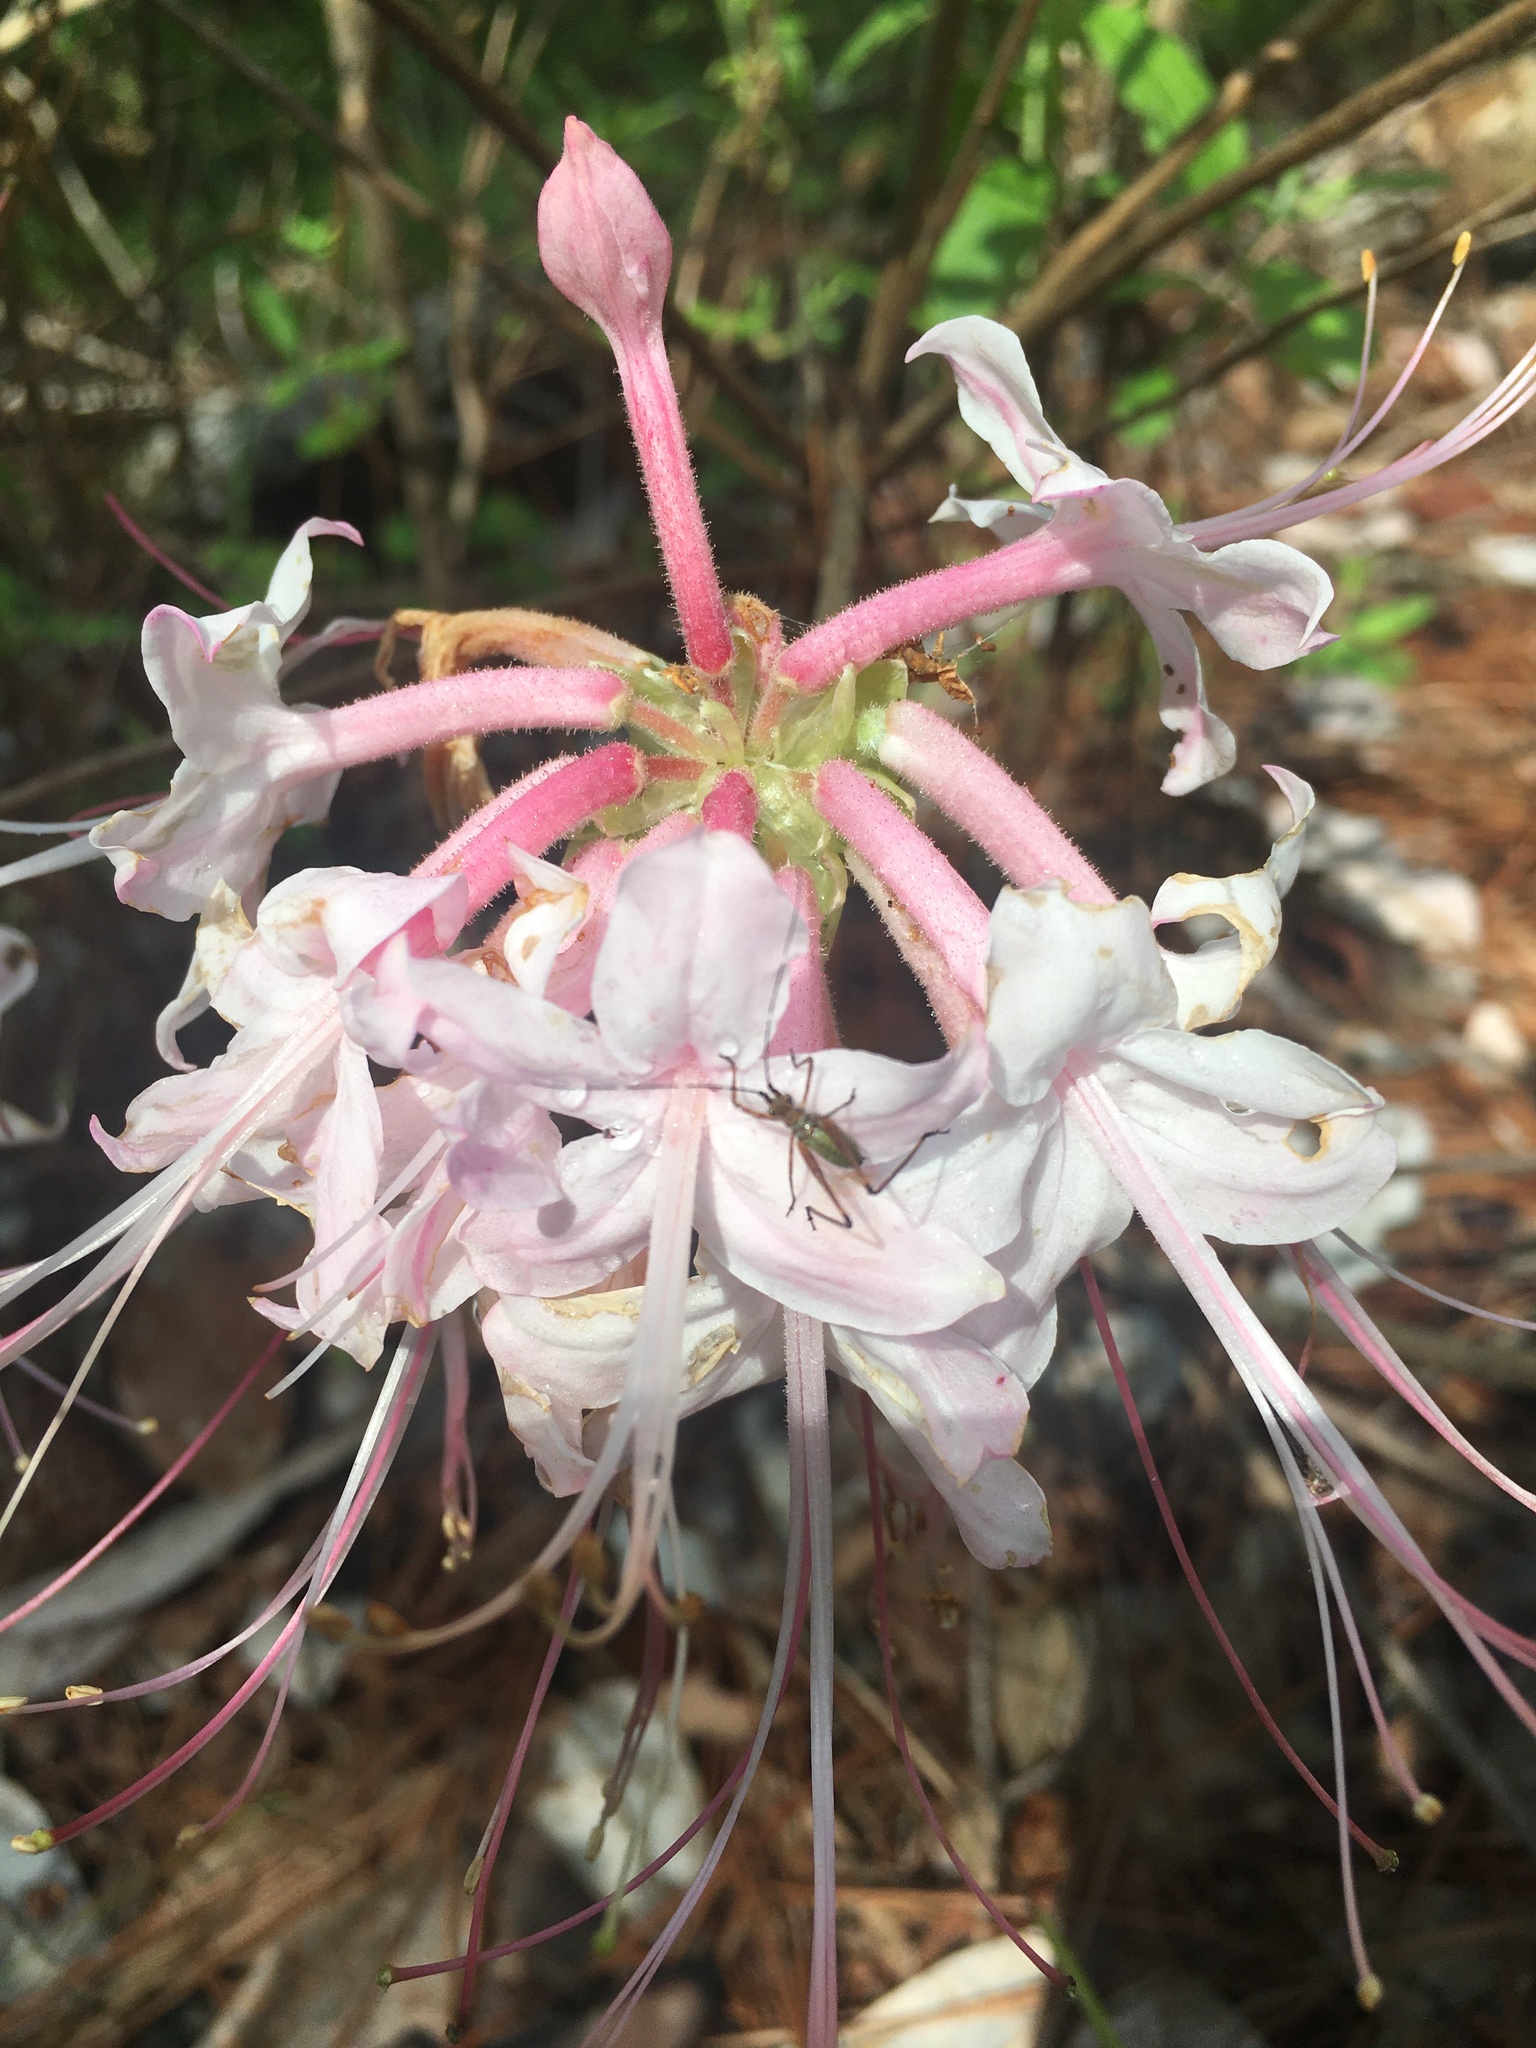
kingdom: Plantae
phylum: Tracheophyta
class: Magnoliopsida
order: Ericales
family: Ericaceae
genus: Rhododendron
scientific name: Rhododendron canescens
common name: Mountain azalea
